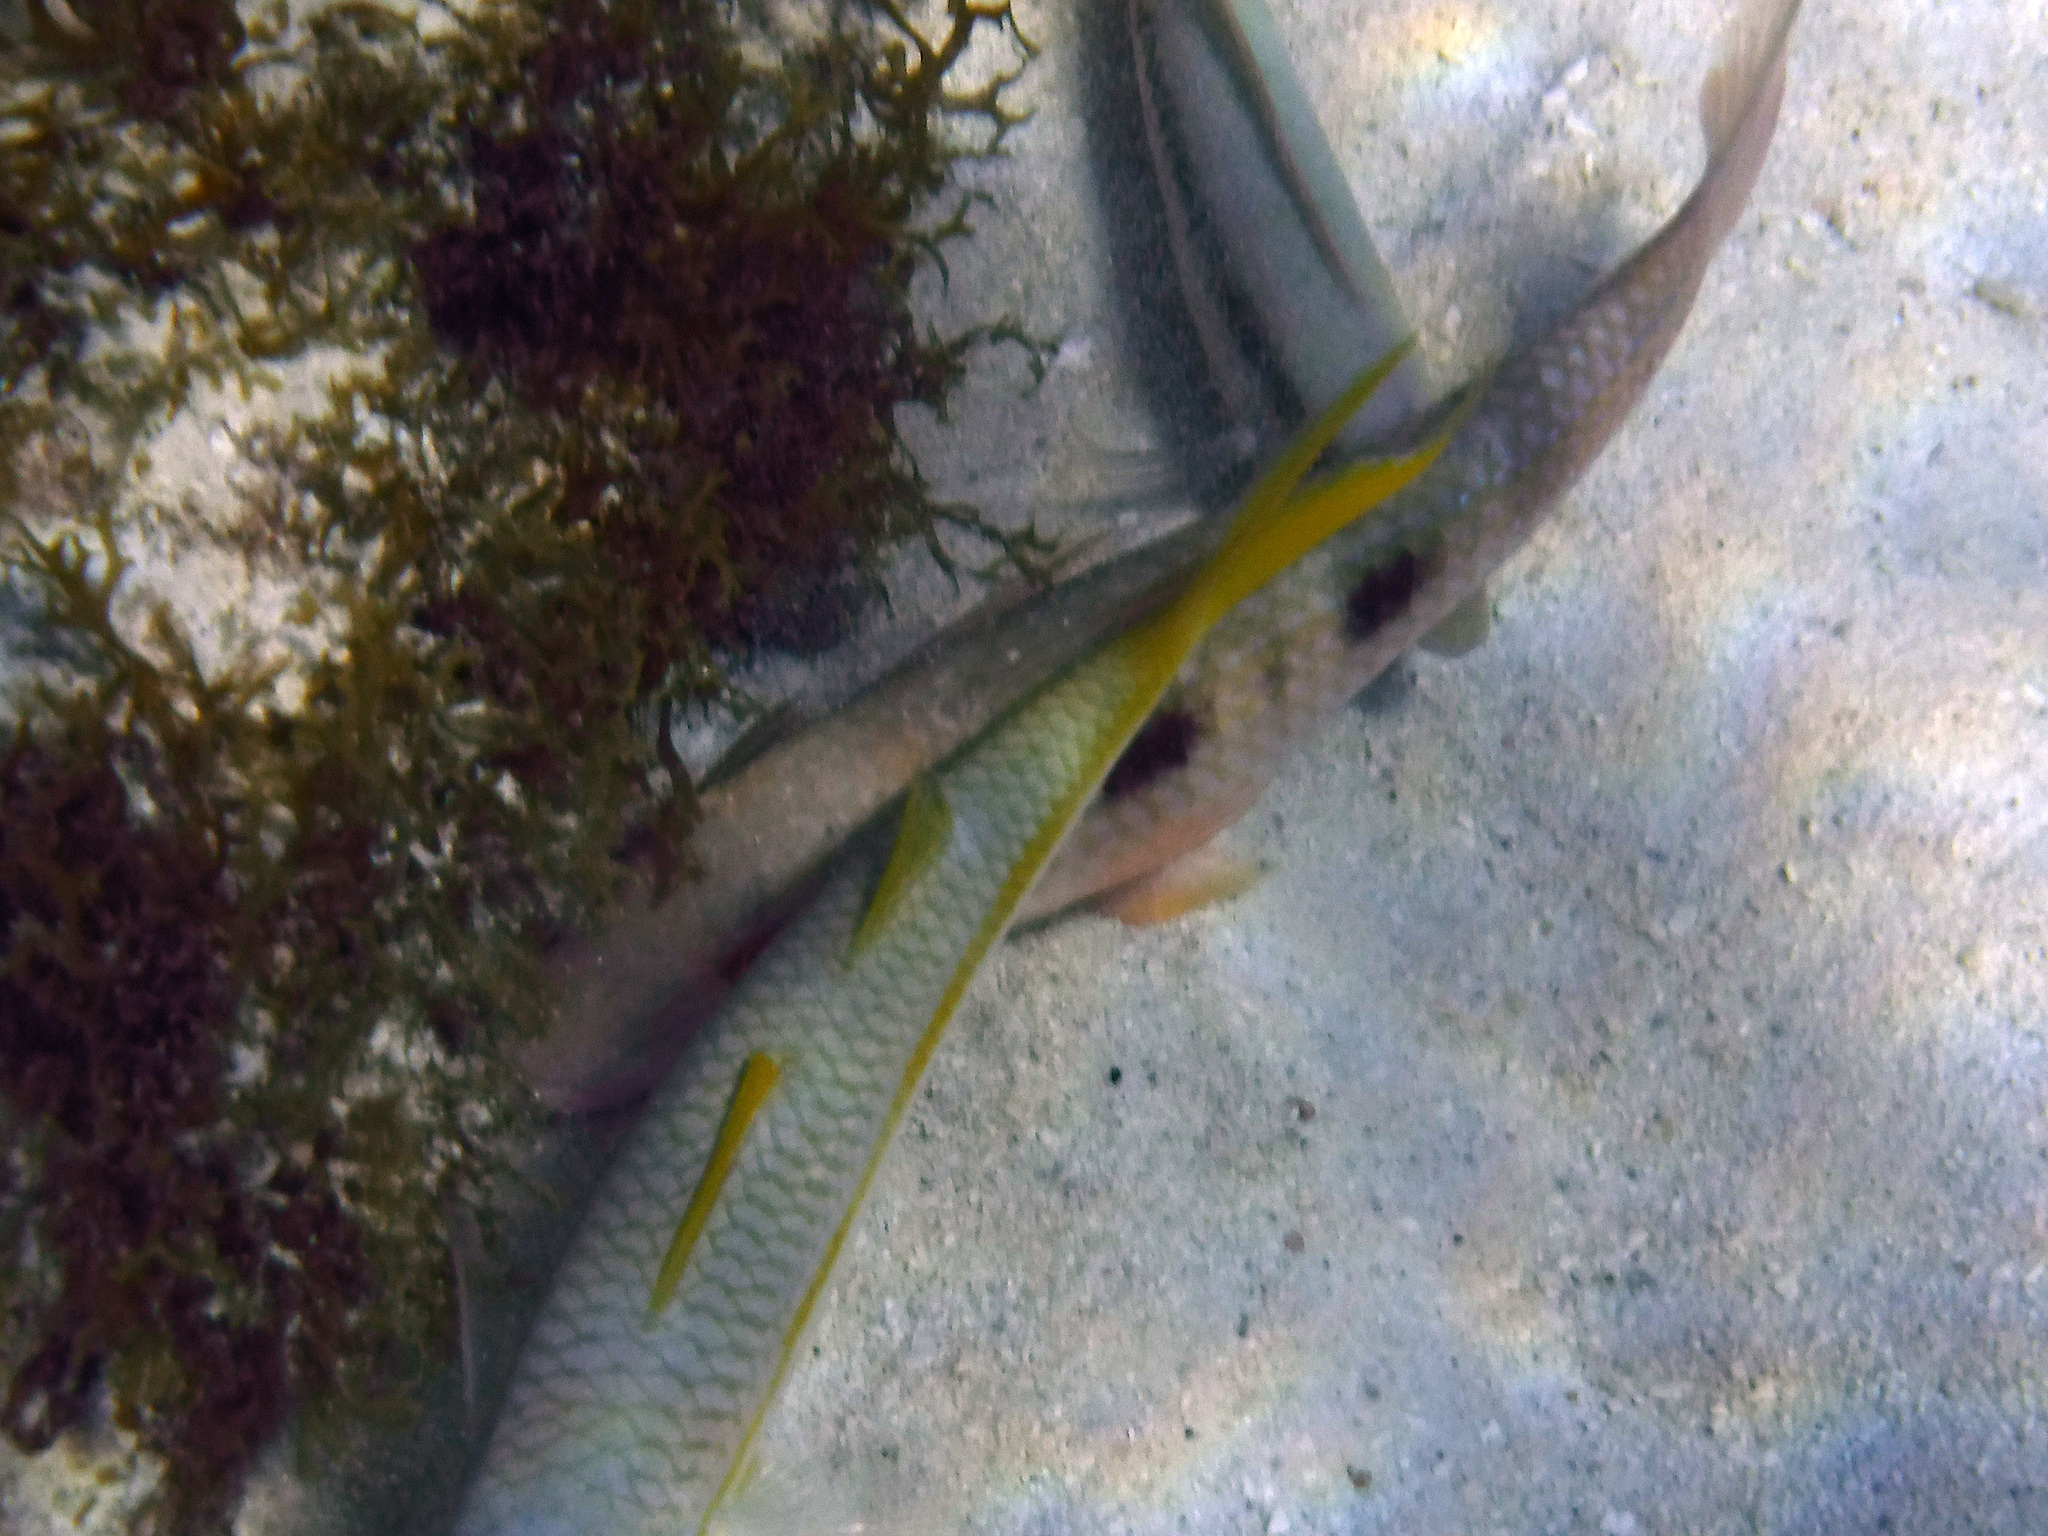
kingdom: Animalia
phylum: Chordata
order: Perciformes
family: Mullidae
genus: Pseudupeneus
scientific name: Pseudupeneus maculatus
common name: Spotted goatfish
